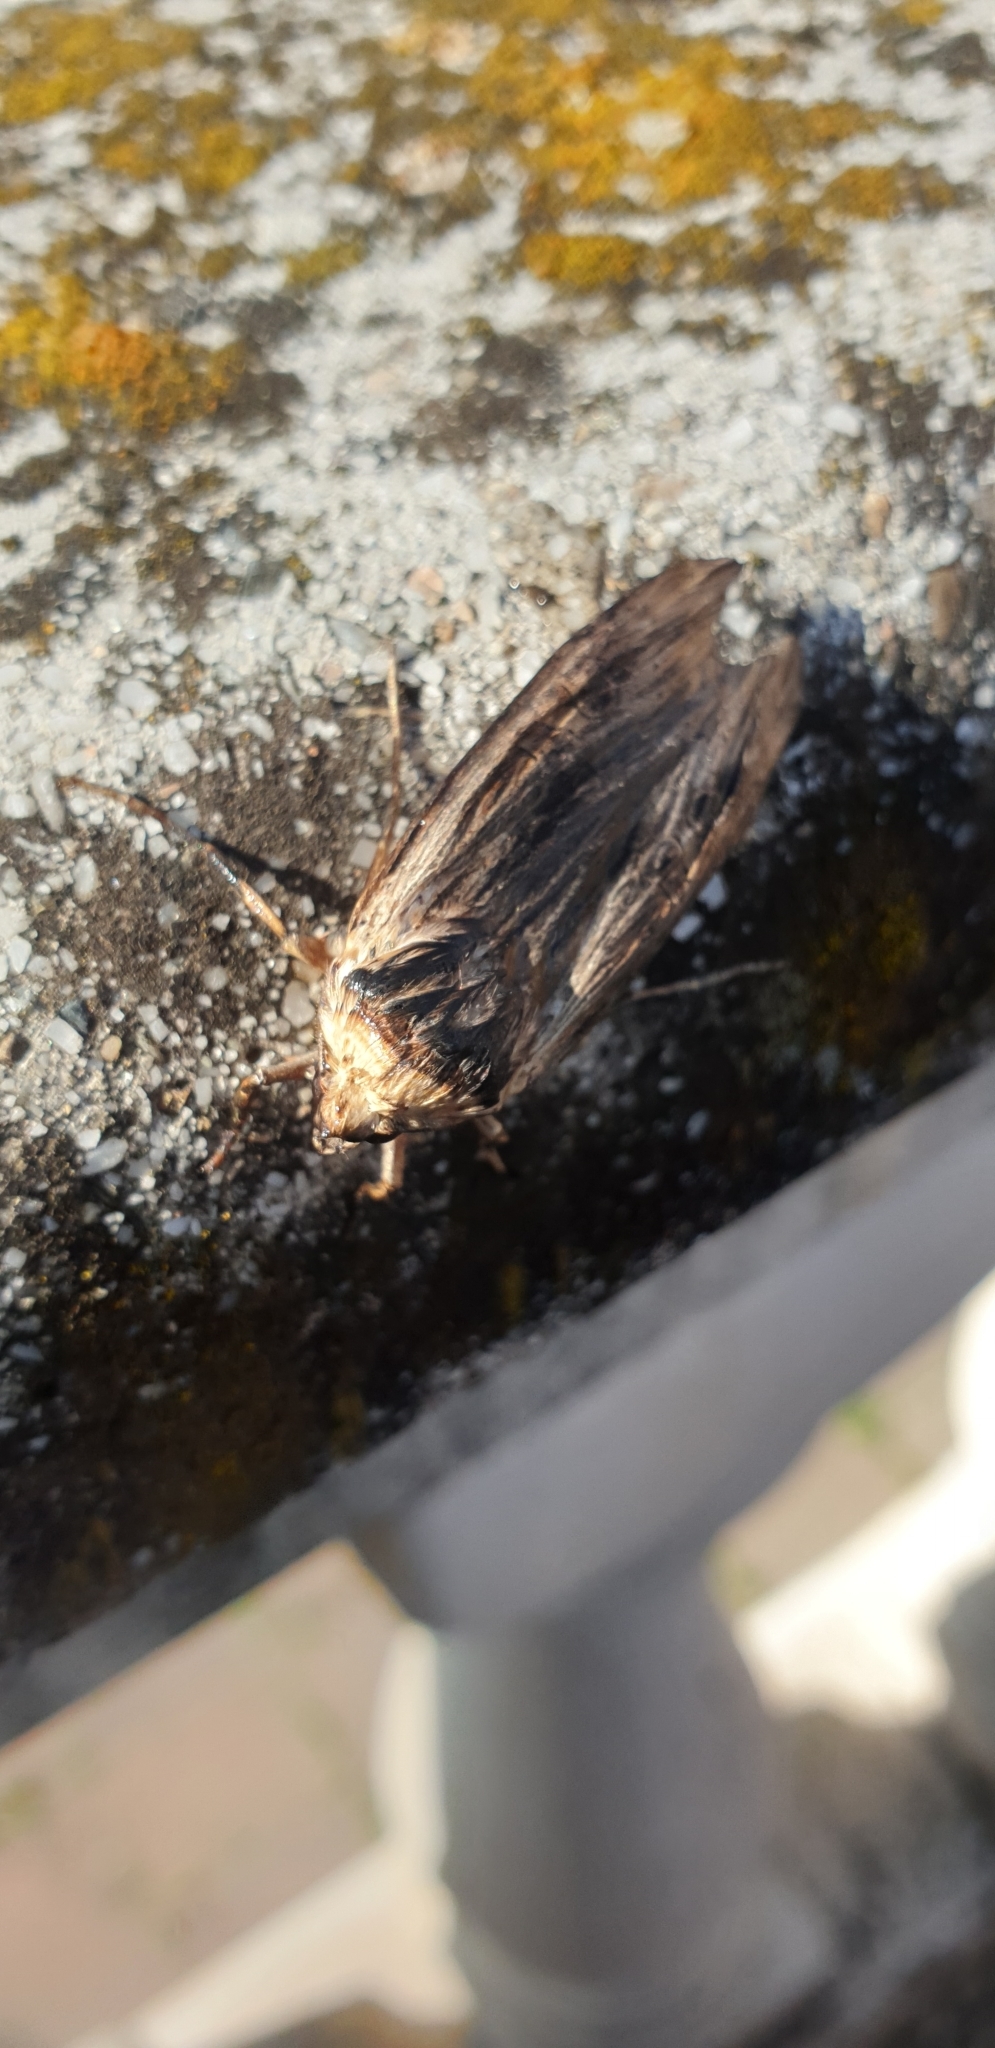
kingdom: Animalia
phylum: Arthropoda
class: Insecta
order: Lepidoptera
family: Noctuidae
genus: Xylena
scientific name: Xylena exsoleta
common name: Sword-grass
